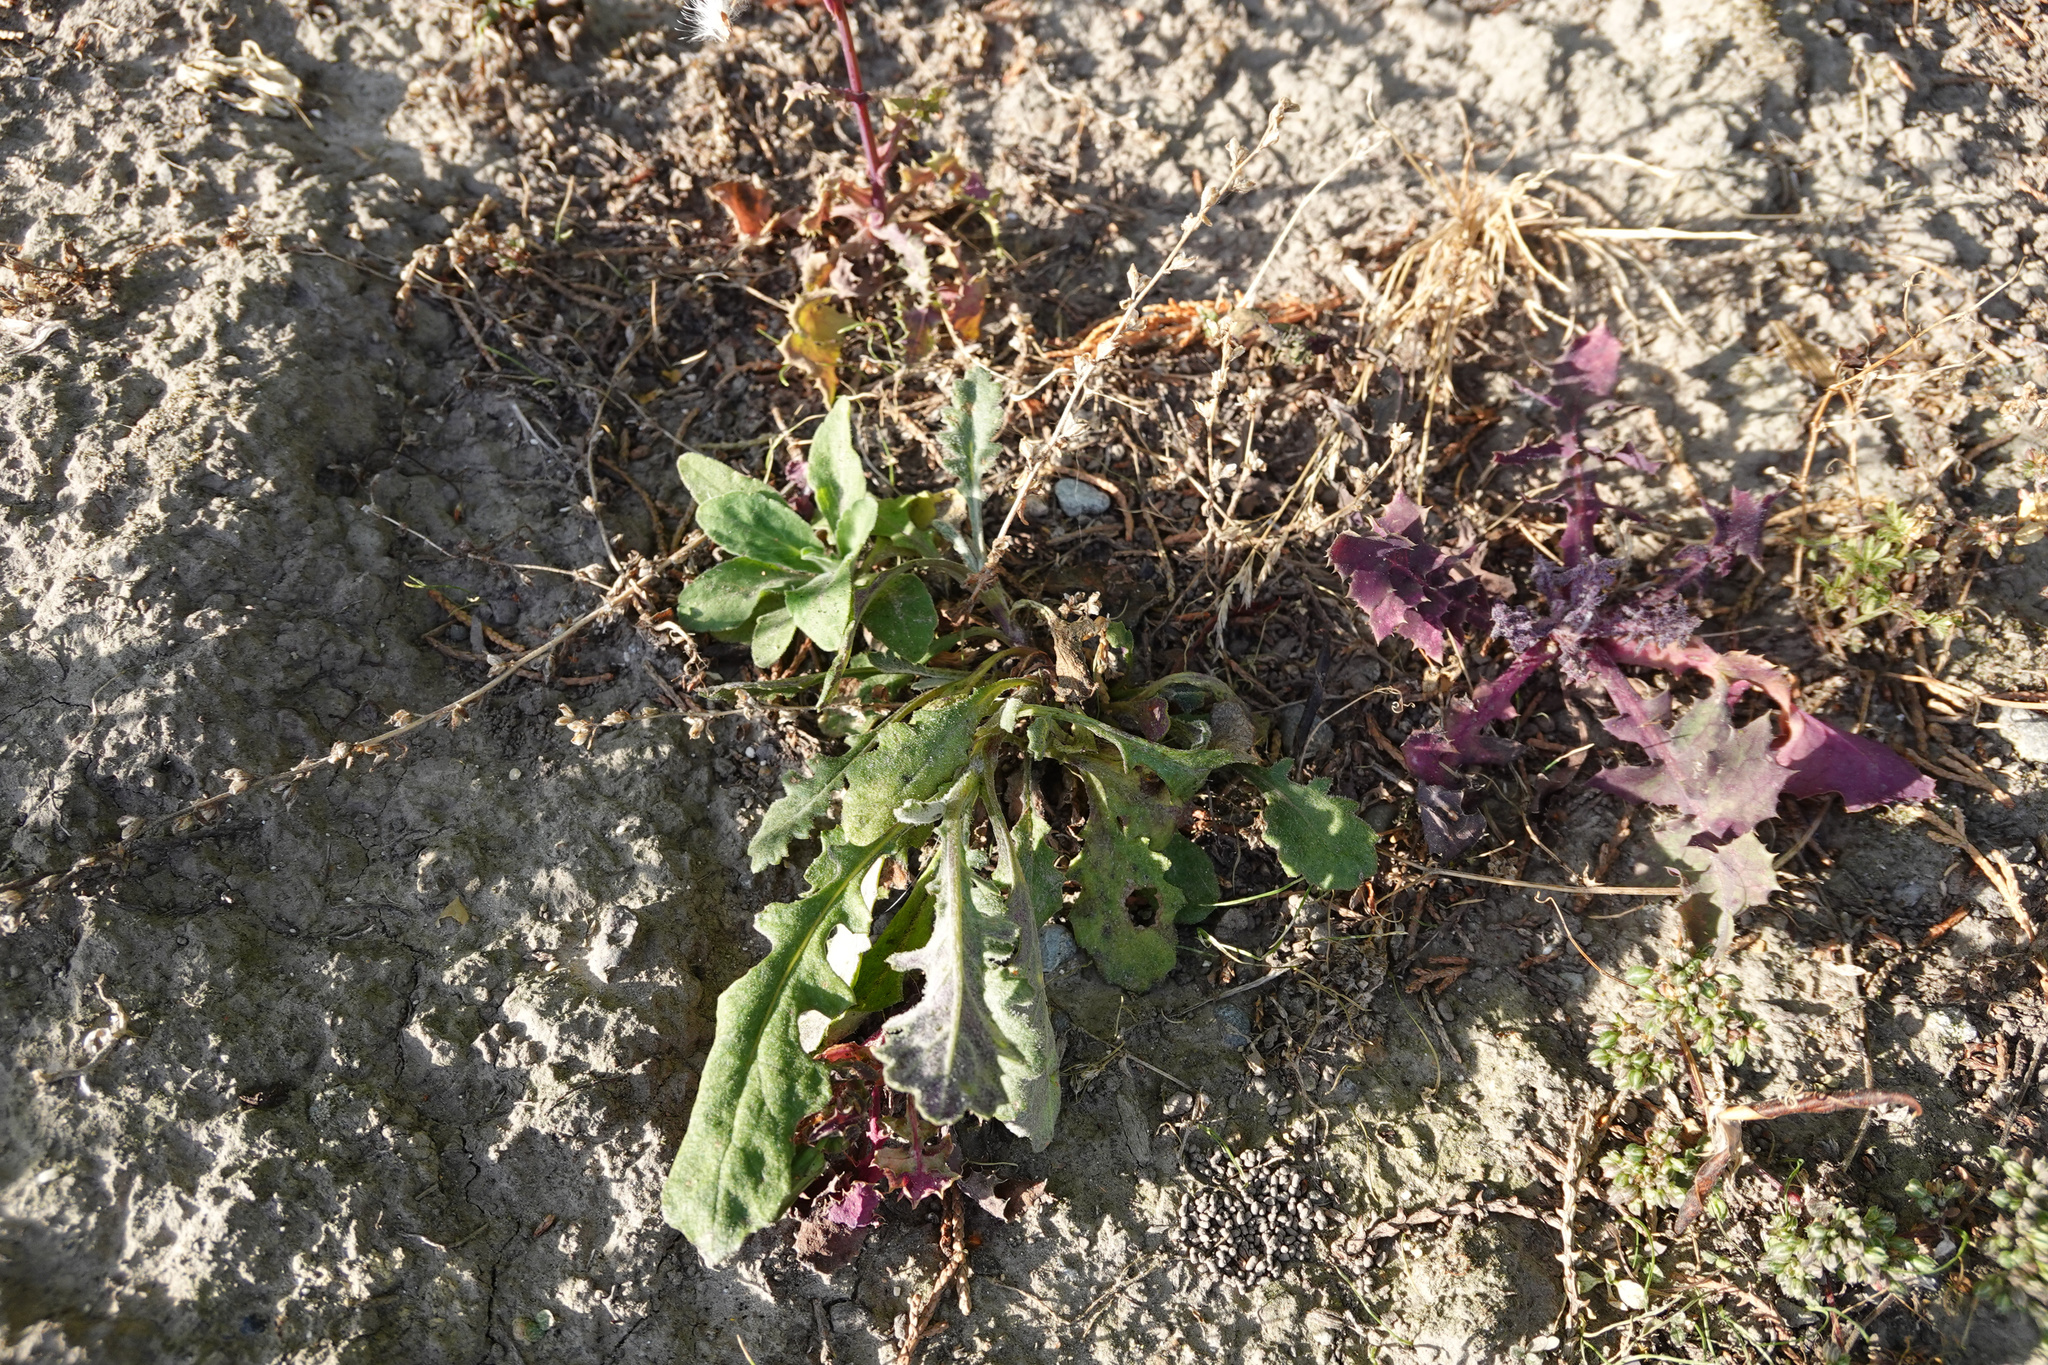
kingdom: Plantae
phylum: Tracheophyta
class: Magnoliopsida
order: Asterales
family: Asteraceae
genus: Senecio
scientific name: Senecio glomeratus
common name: Cutleaf burnweed
